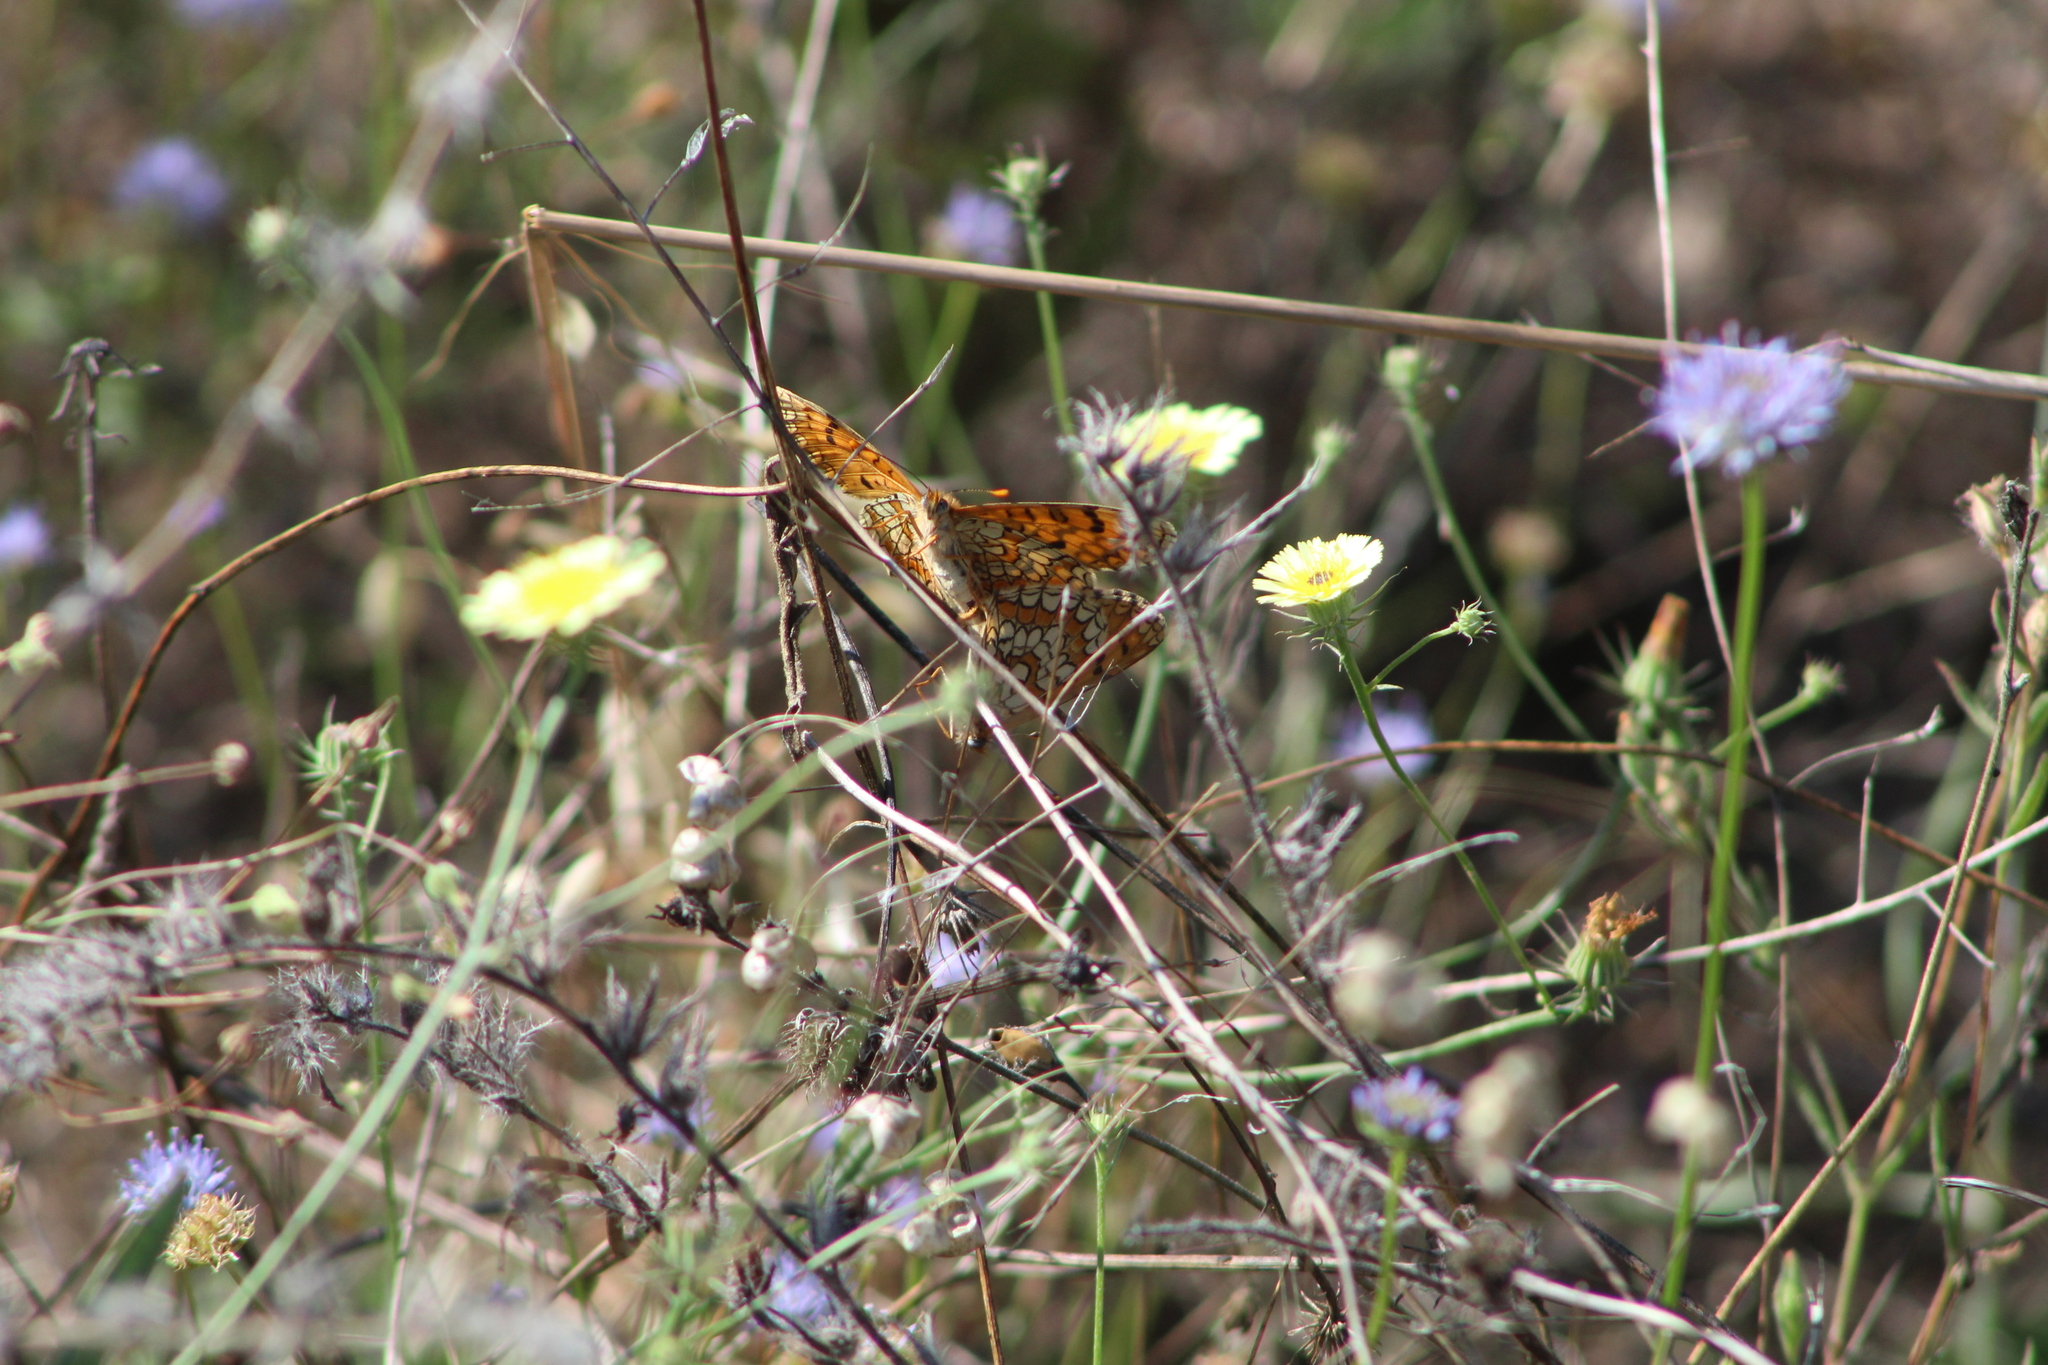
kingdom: Animalia
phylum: Arthropoda
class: Insecta
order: Lepidoptera
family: Nymphalidae
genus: Melitaea
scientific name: Melitaea deione
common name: Provençal fritillary
